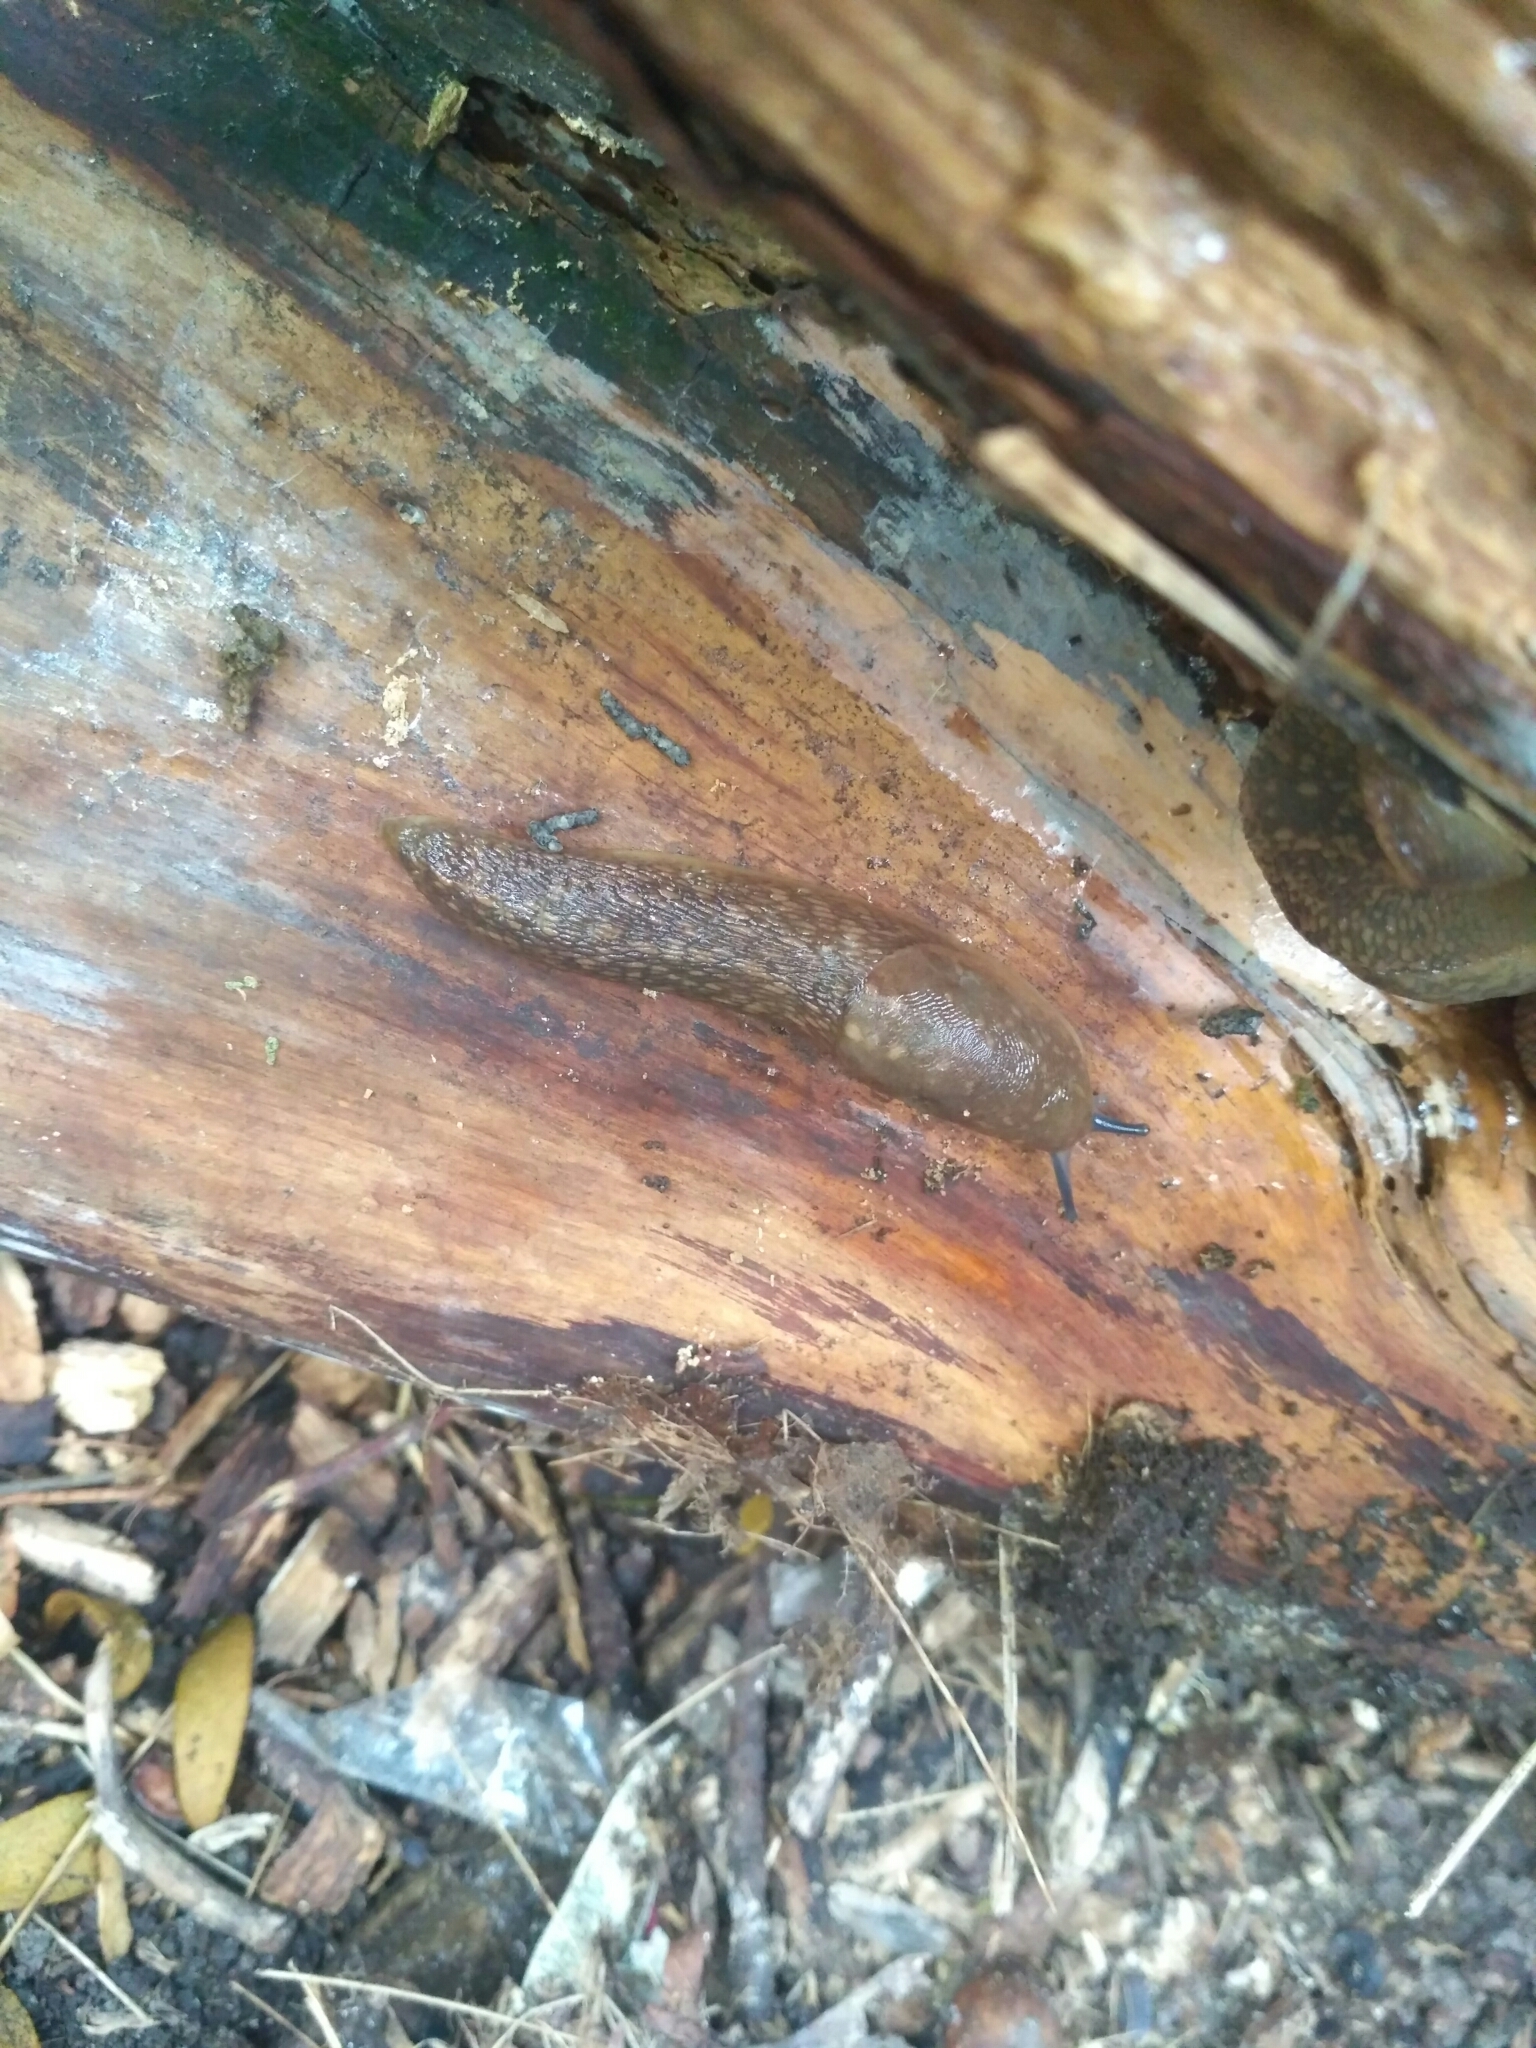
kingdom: Animalia
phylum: Mollusca
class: Gastropoda
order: Stylommatophora
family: Limacidae
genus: Limacus
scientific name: Limacus
